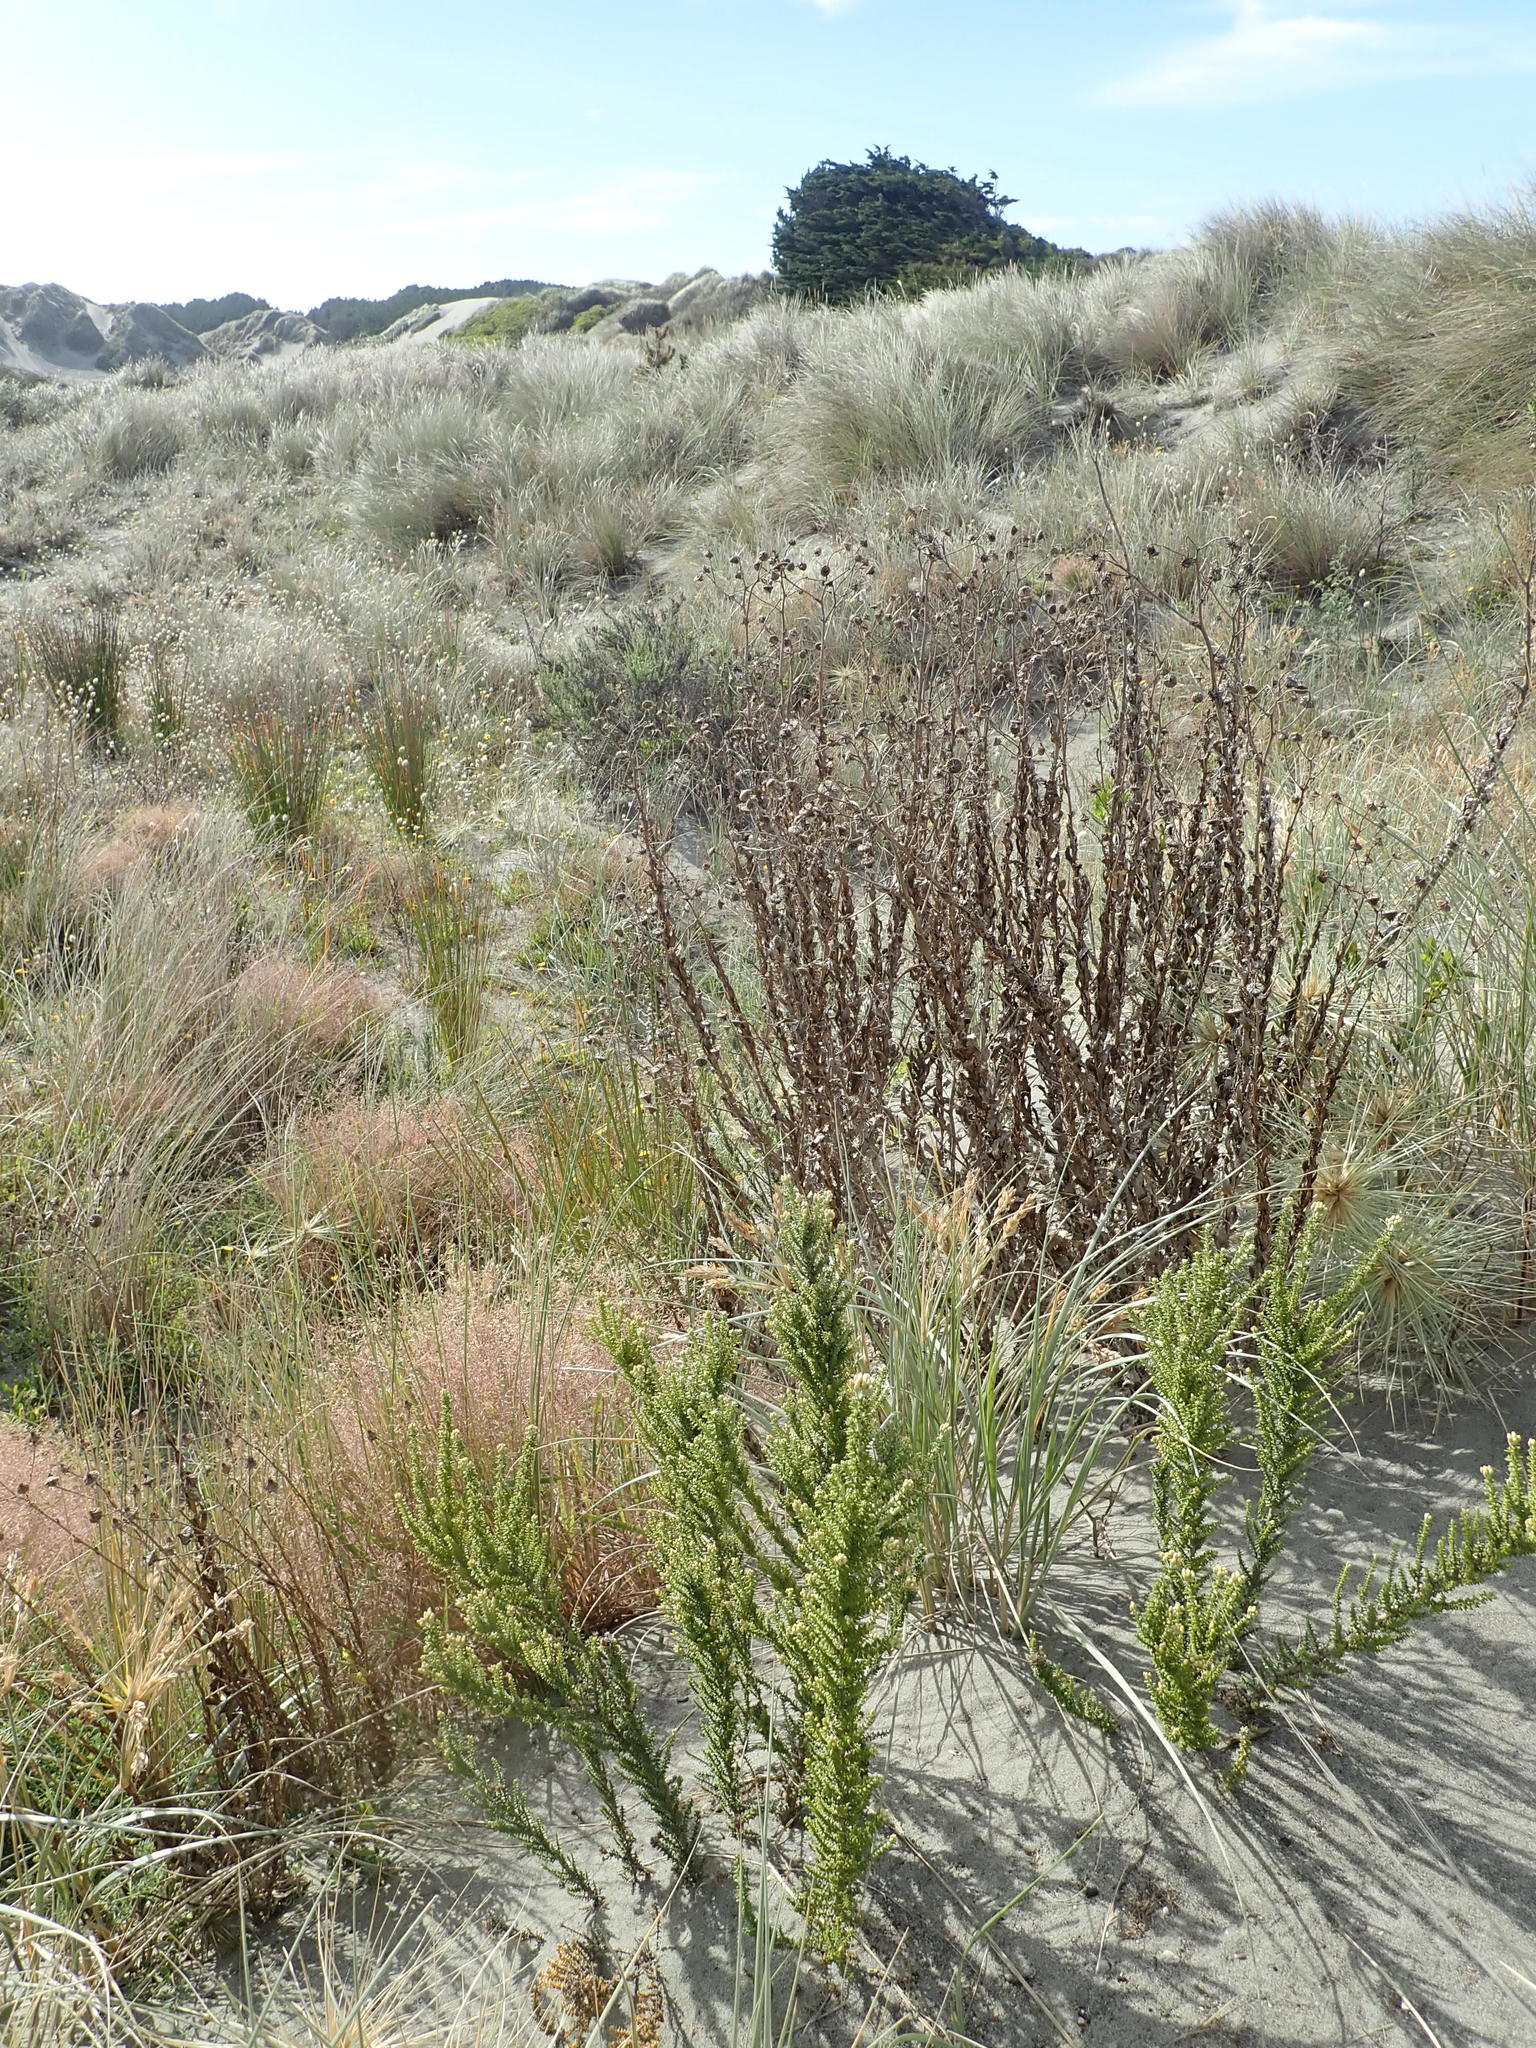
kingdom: Plantae
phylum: Tracheophyta
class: Magnoliopsida
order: Asterales
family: Asteraceae
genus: Ozothamnus
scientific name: Ozothamnus leptophyllus
